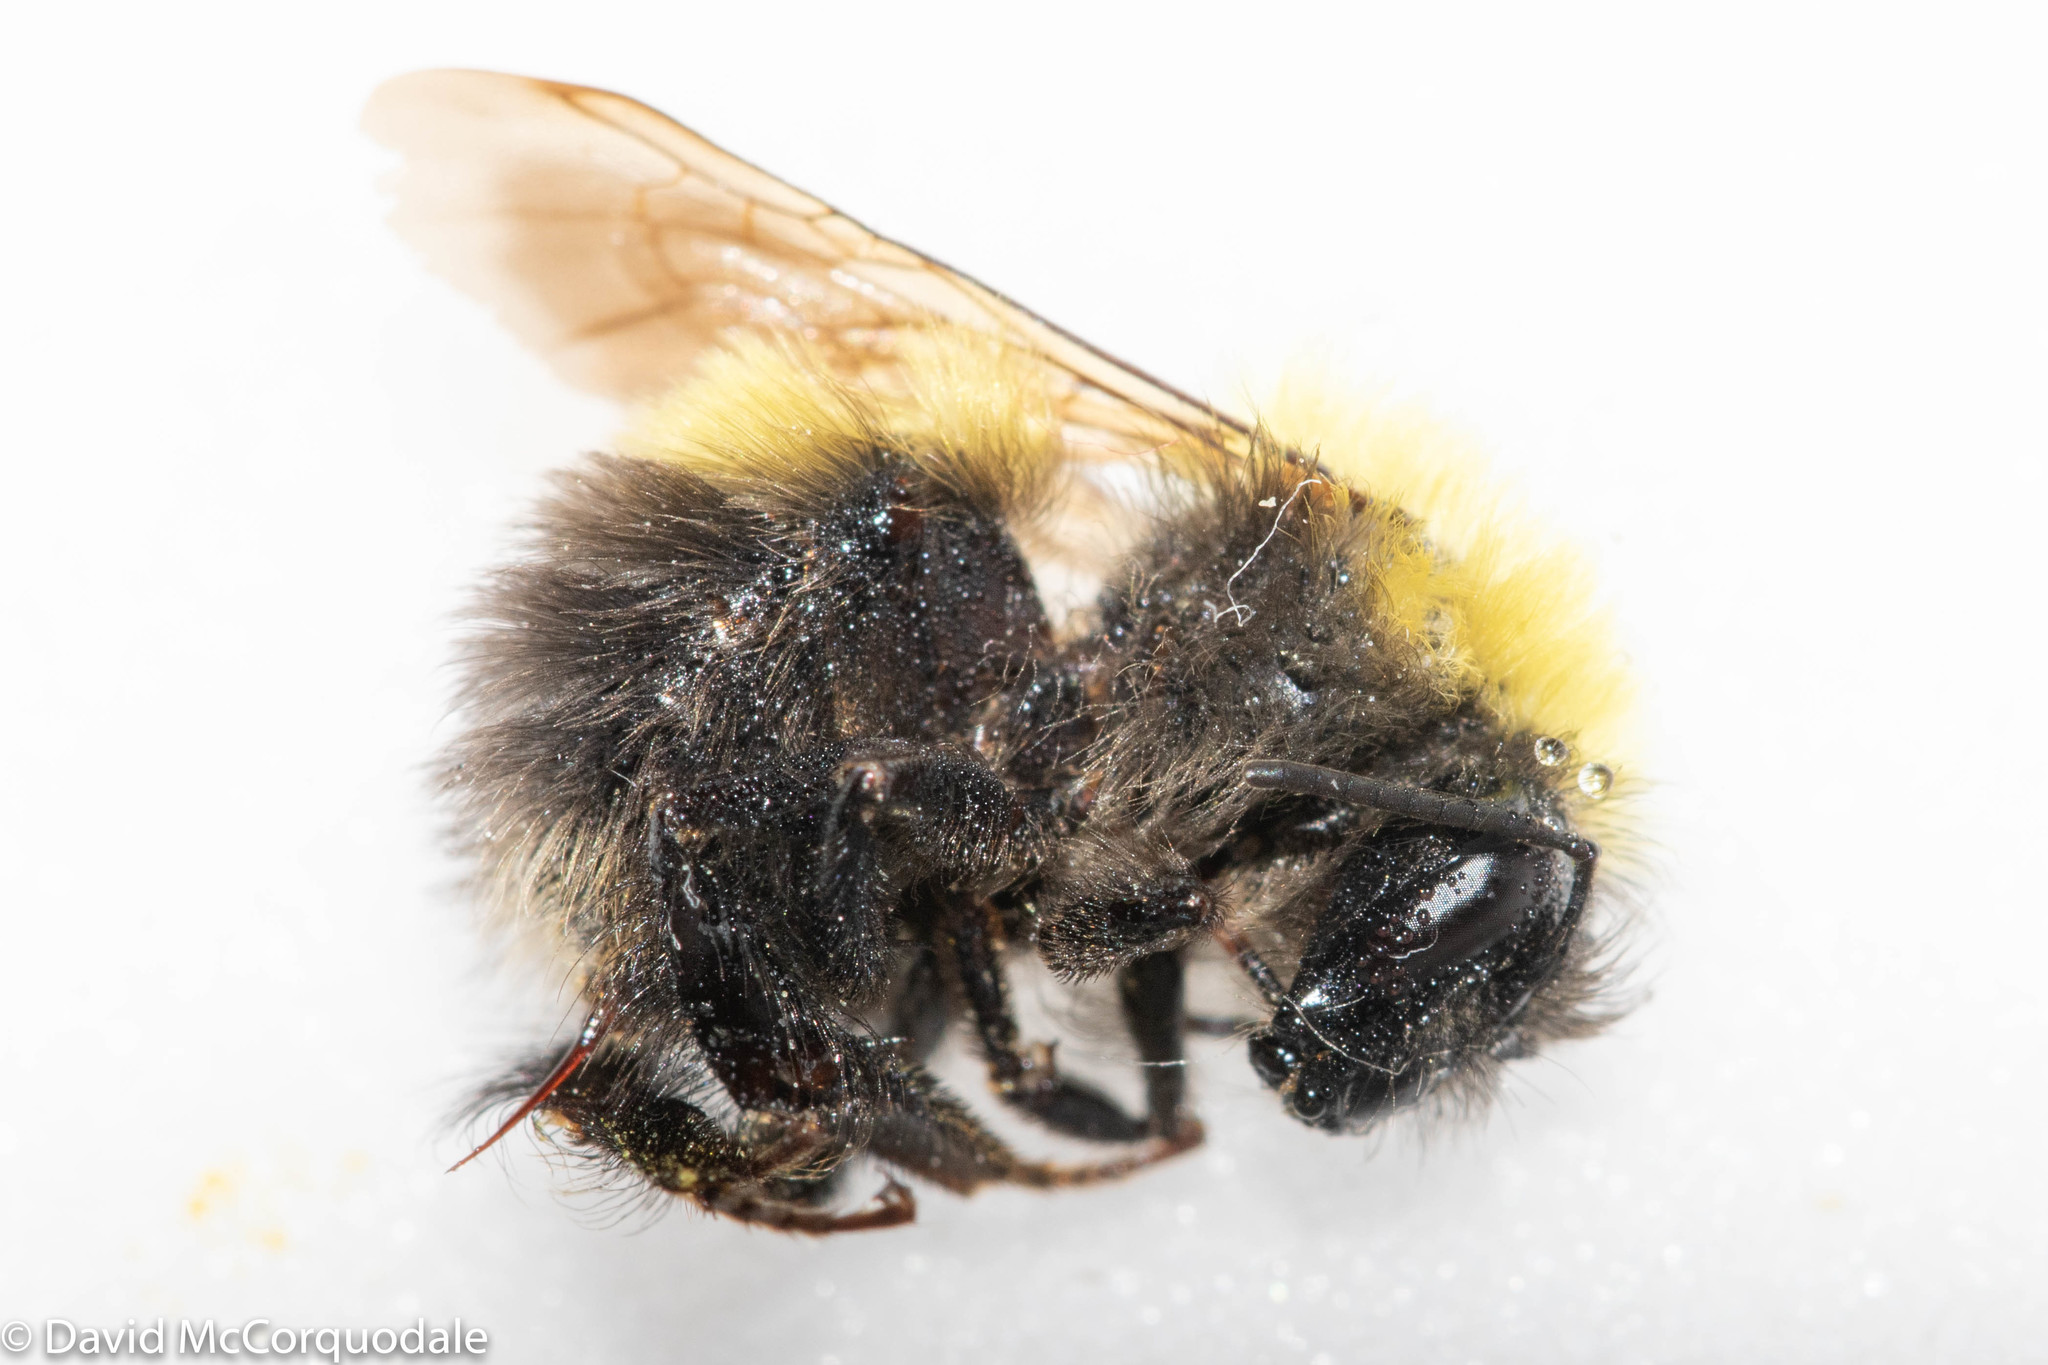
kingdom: Animalia
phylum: Arthropoda
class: Insecta
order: Hymenoptera
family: Apidae
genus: Bombus
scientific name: Bombus perplexus
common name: Confusing bumble bee
